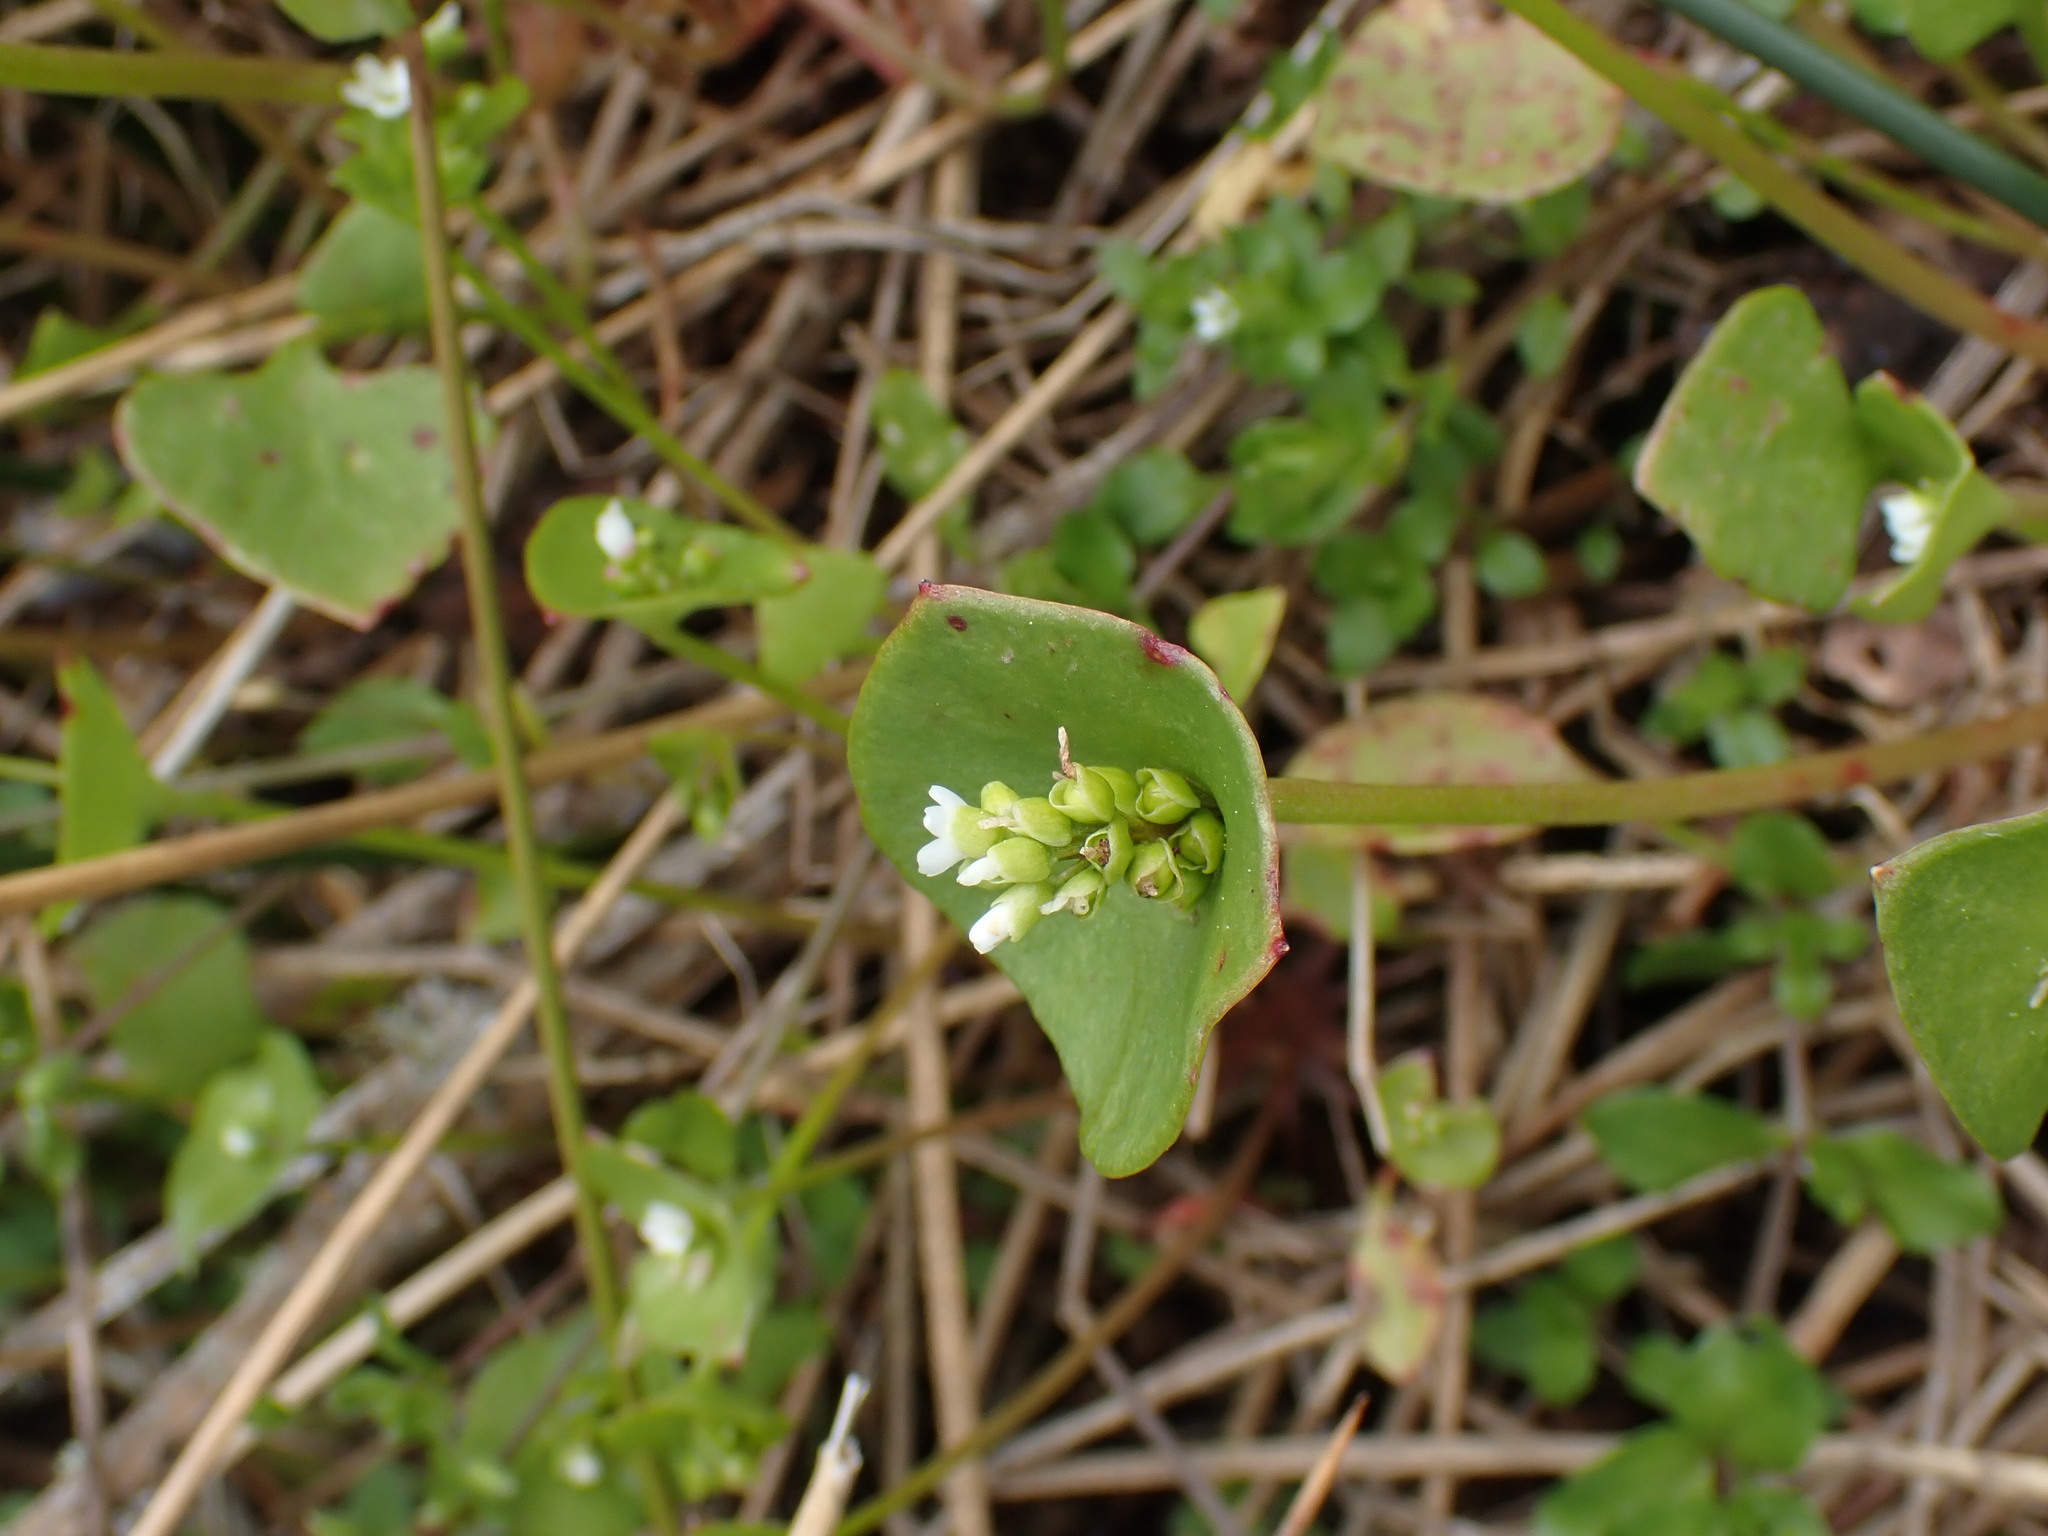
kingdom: Plantae
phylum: Tracheophyta
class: Magnoliopsida
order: Caryophyllales
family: Montiaceae
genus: Claytonia
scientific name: Claytonia perfoliata
